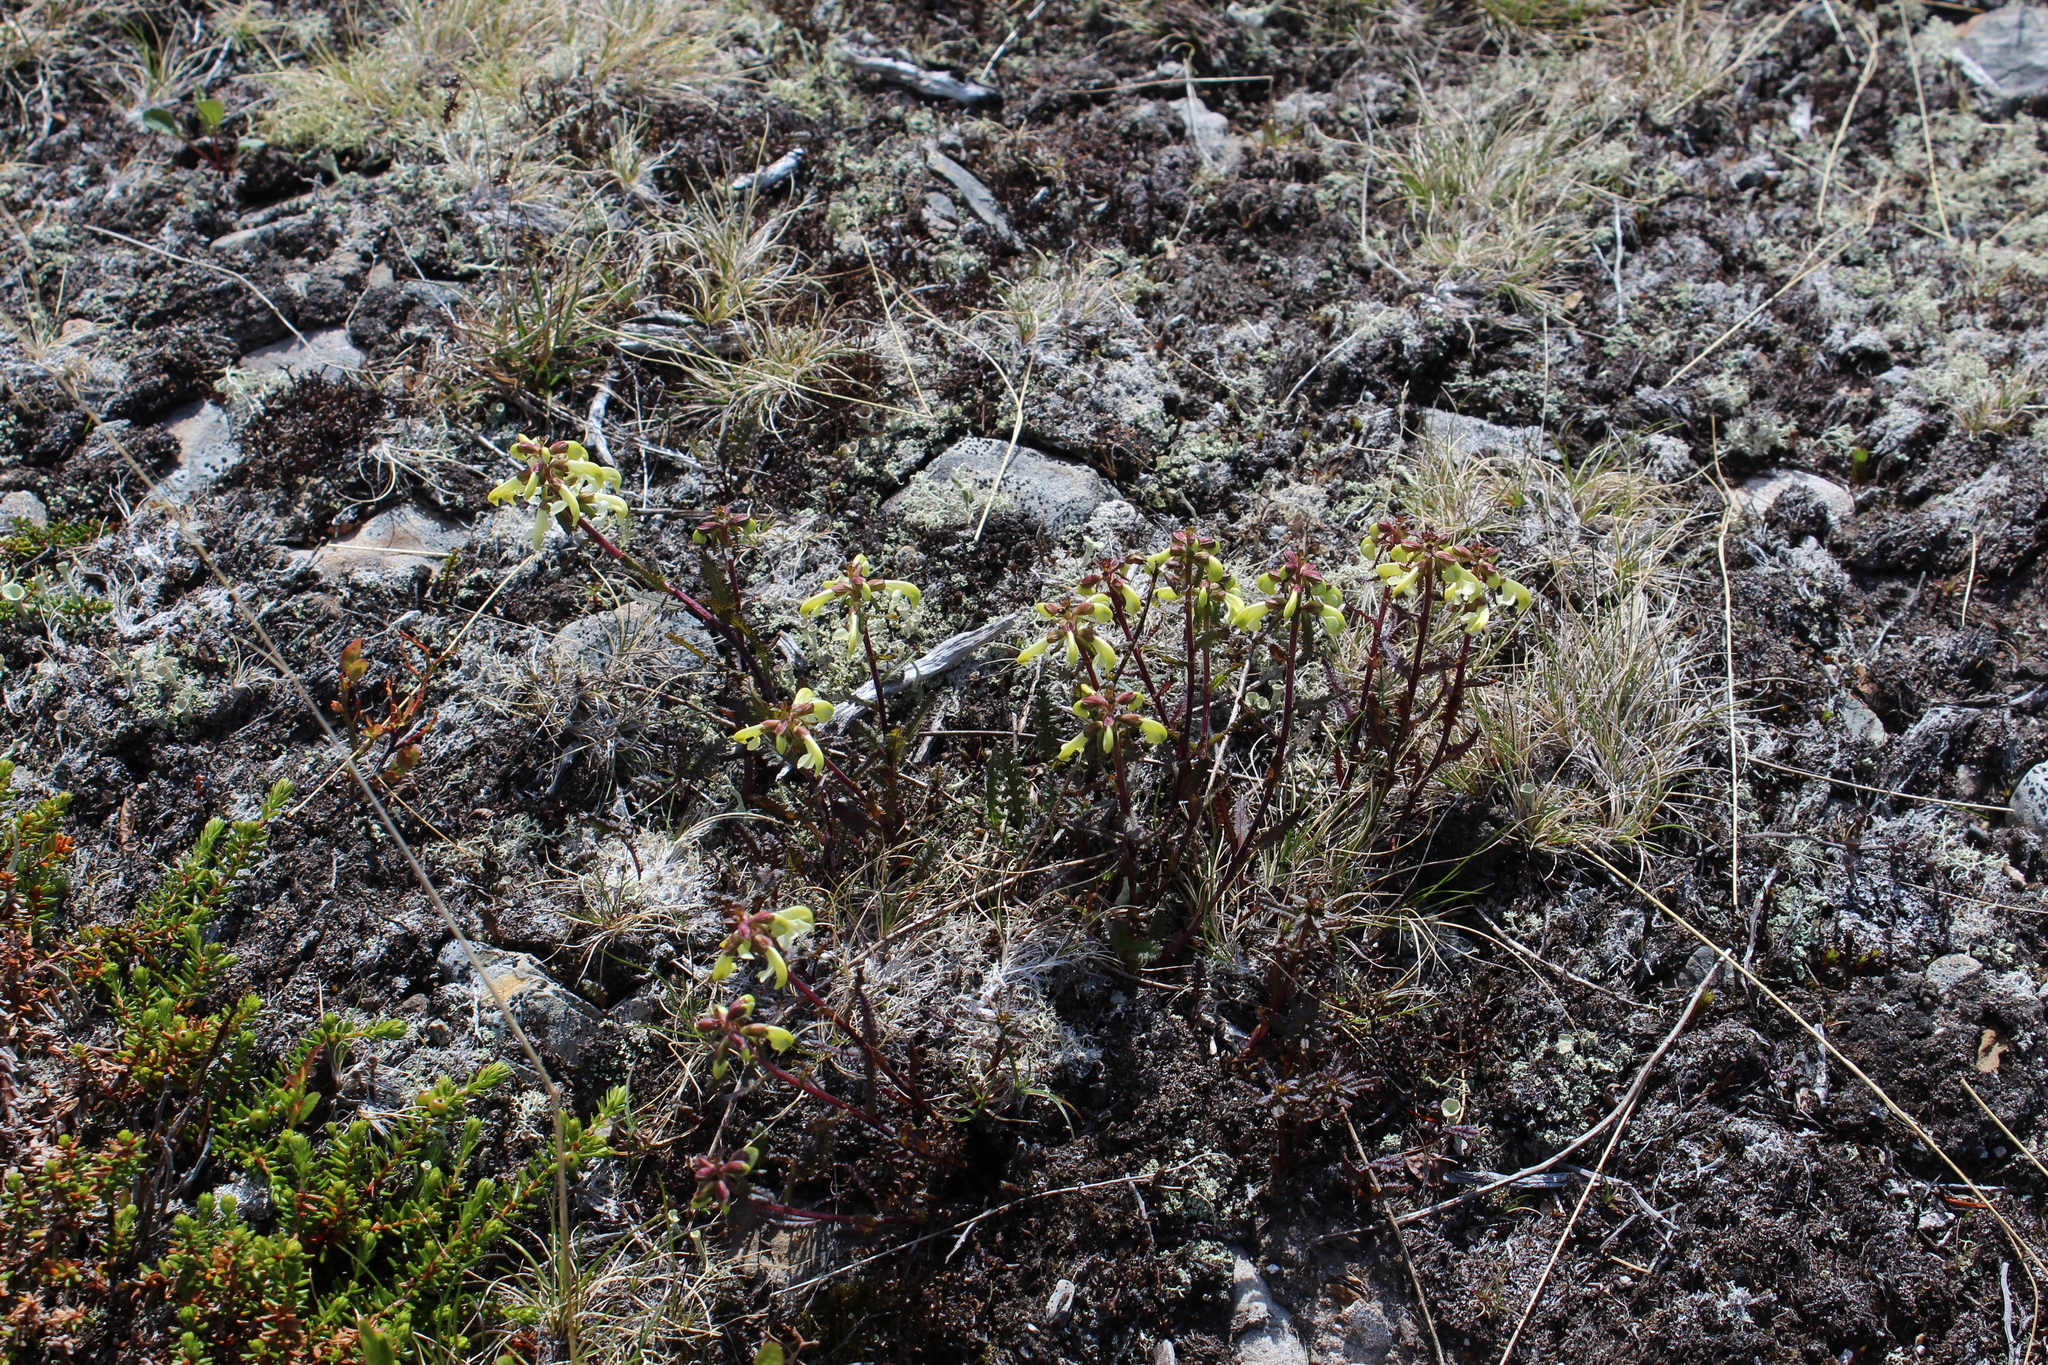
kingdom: Plantae
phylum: Tracheophyta
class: Magnoliopsida
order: Lamiales
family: Orobanchaceae
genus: Pedicularis
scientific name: Pedicularis lapponica
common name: Lapland lousewort
